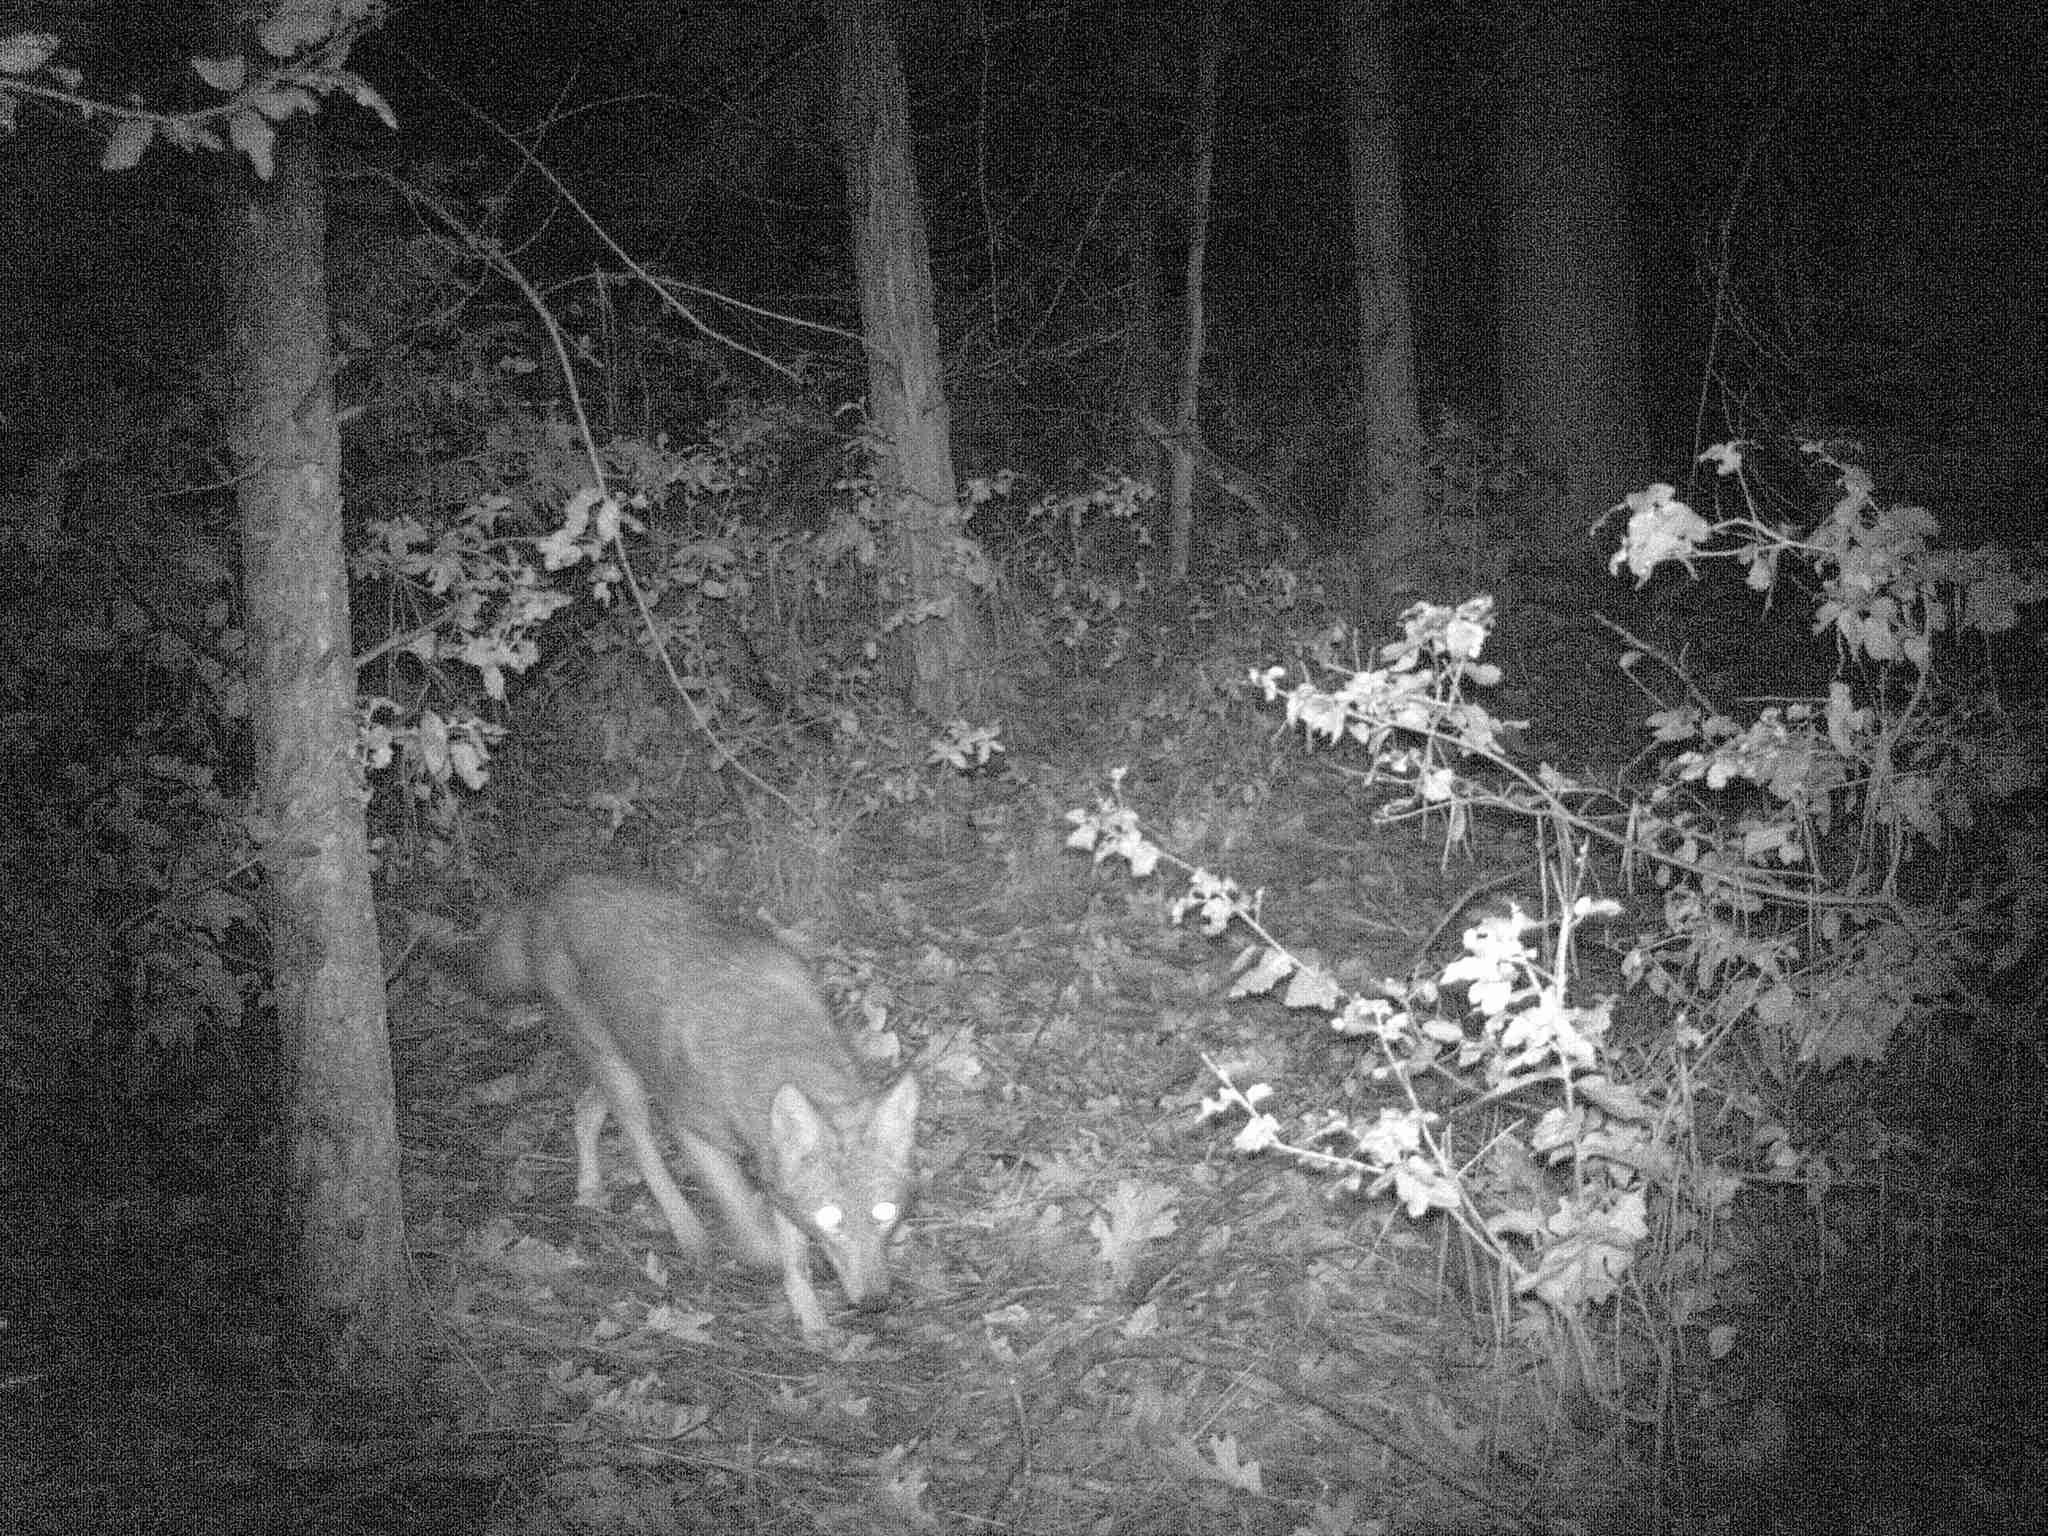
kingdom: Animalia
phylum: Chordata
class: Mammalia
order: Carnivora
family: Canidae
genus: Canis
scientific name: Canis latrans
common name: Coyote
